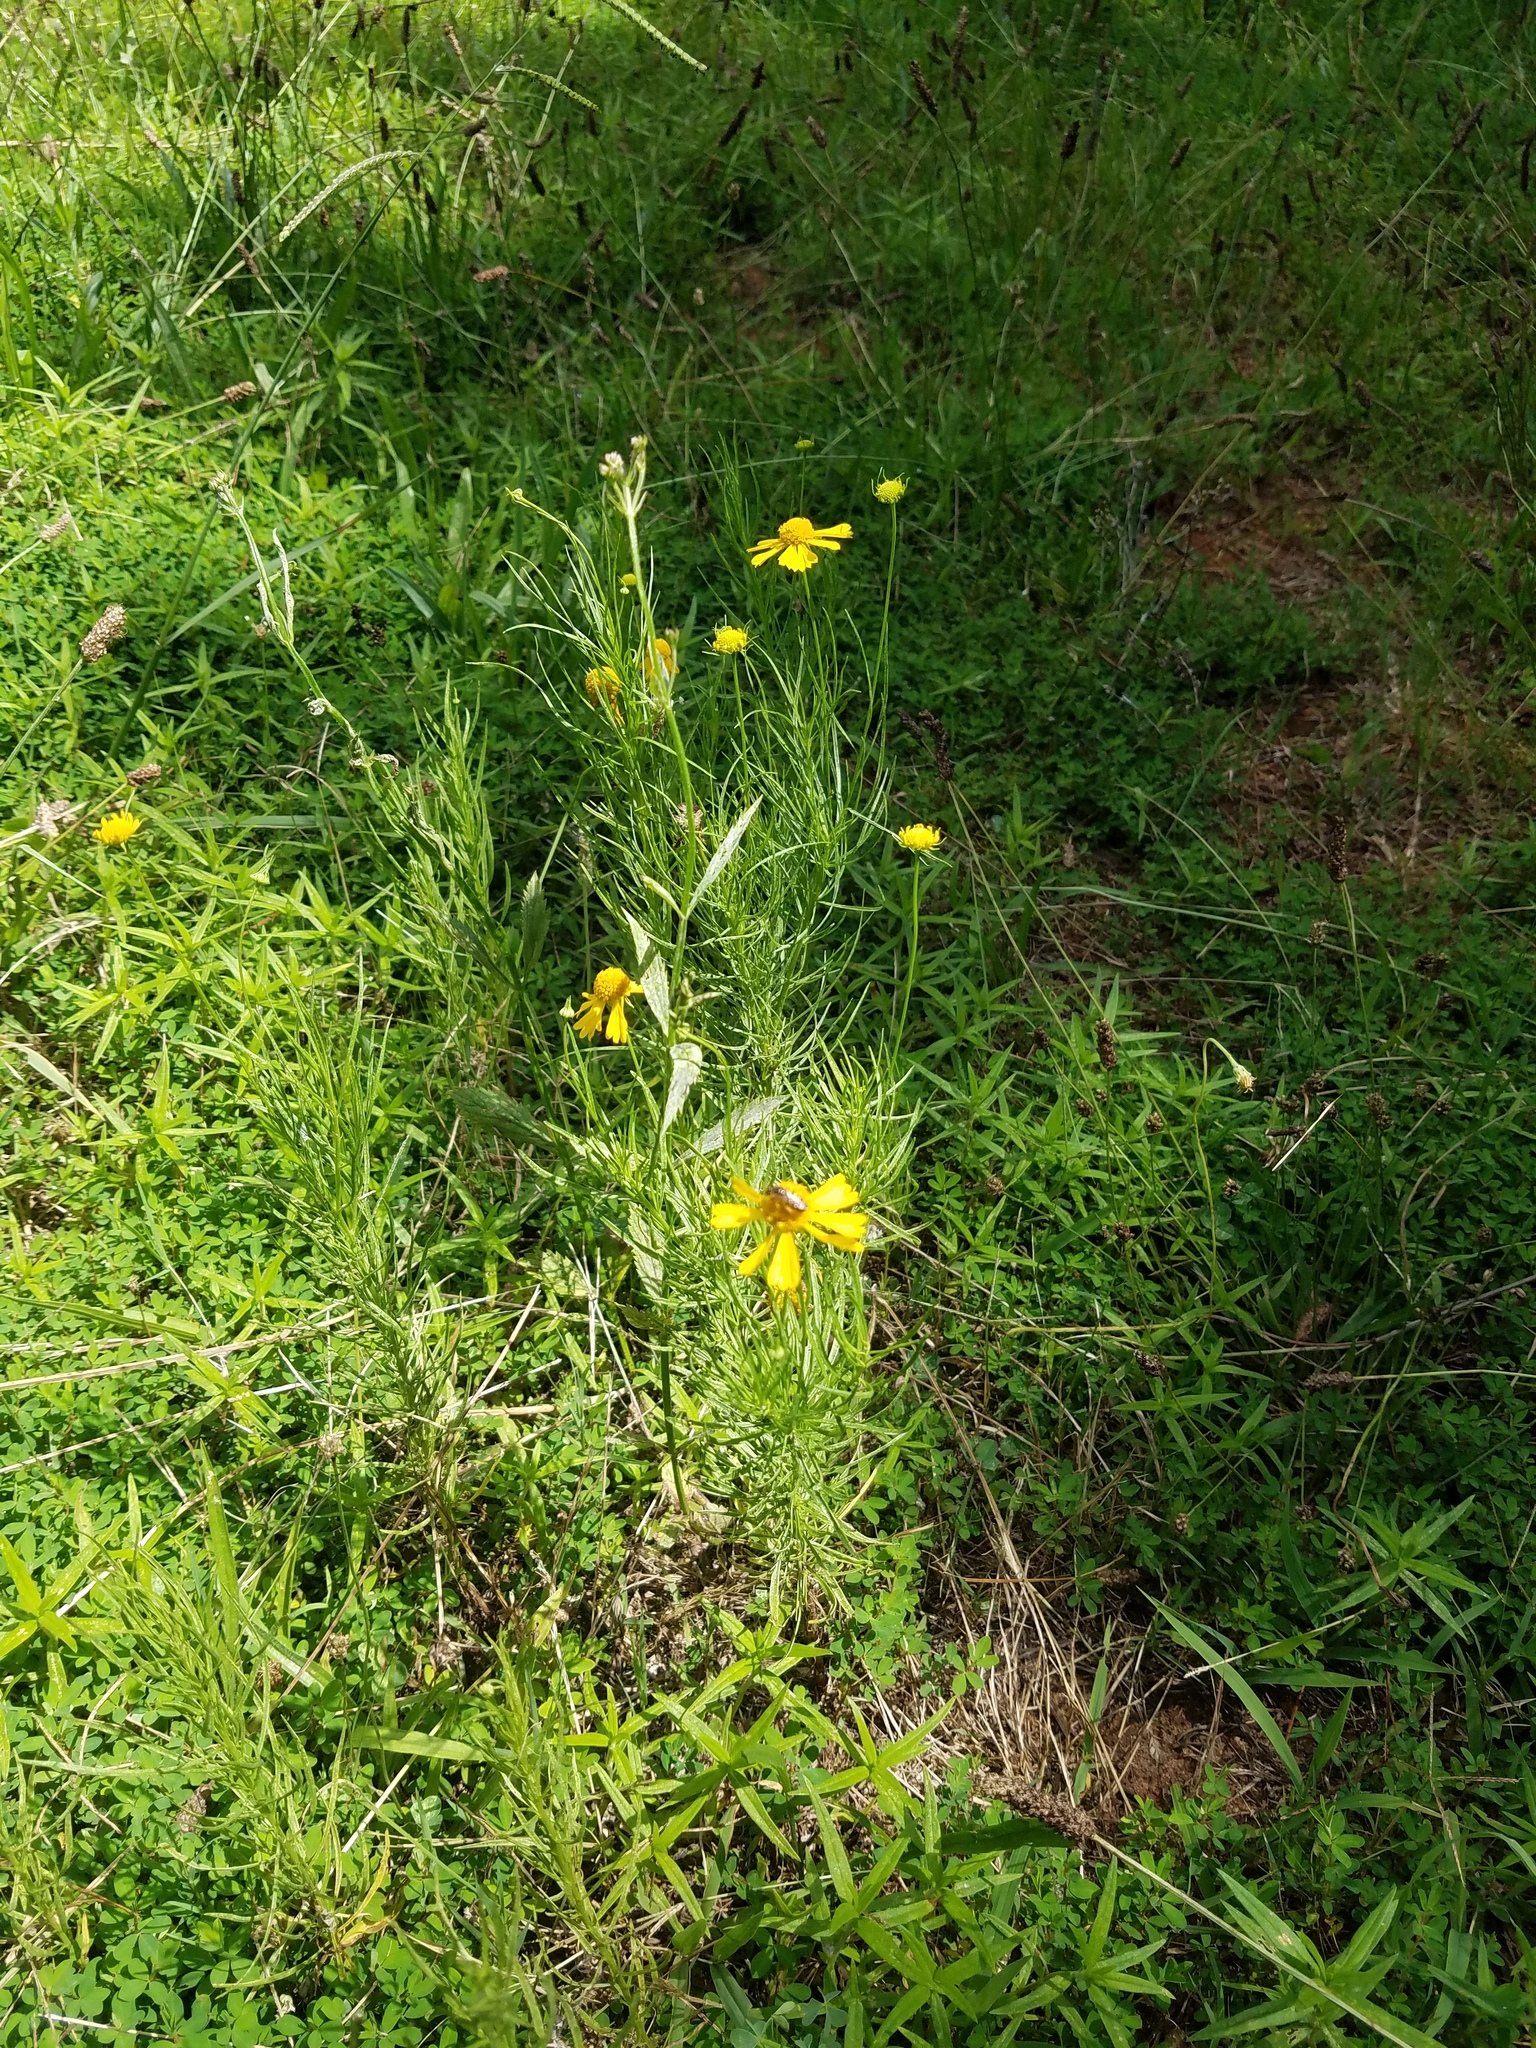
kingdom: Plantae
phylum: Tracheophyta
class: Magnoliopsida
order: Asterales
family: Asteraceae
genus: Helenium
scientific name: Helenium amarum
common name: Bitter sneezeweed
